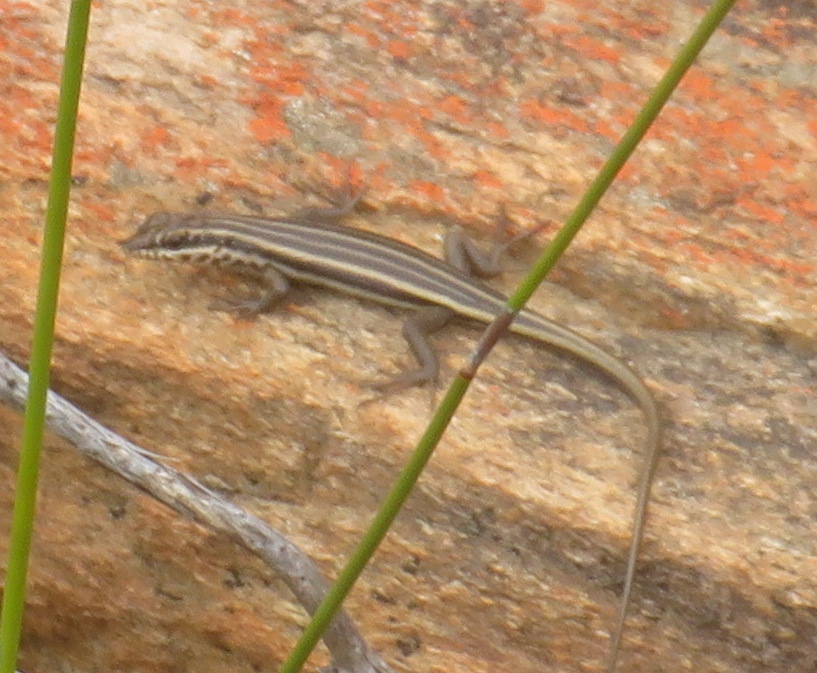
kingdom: Animalia
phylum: Chordata
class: Squamata
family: Scincidae
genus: Trachylepis
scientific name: Trachylepis sulcata
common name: Western rock skink
